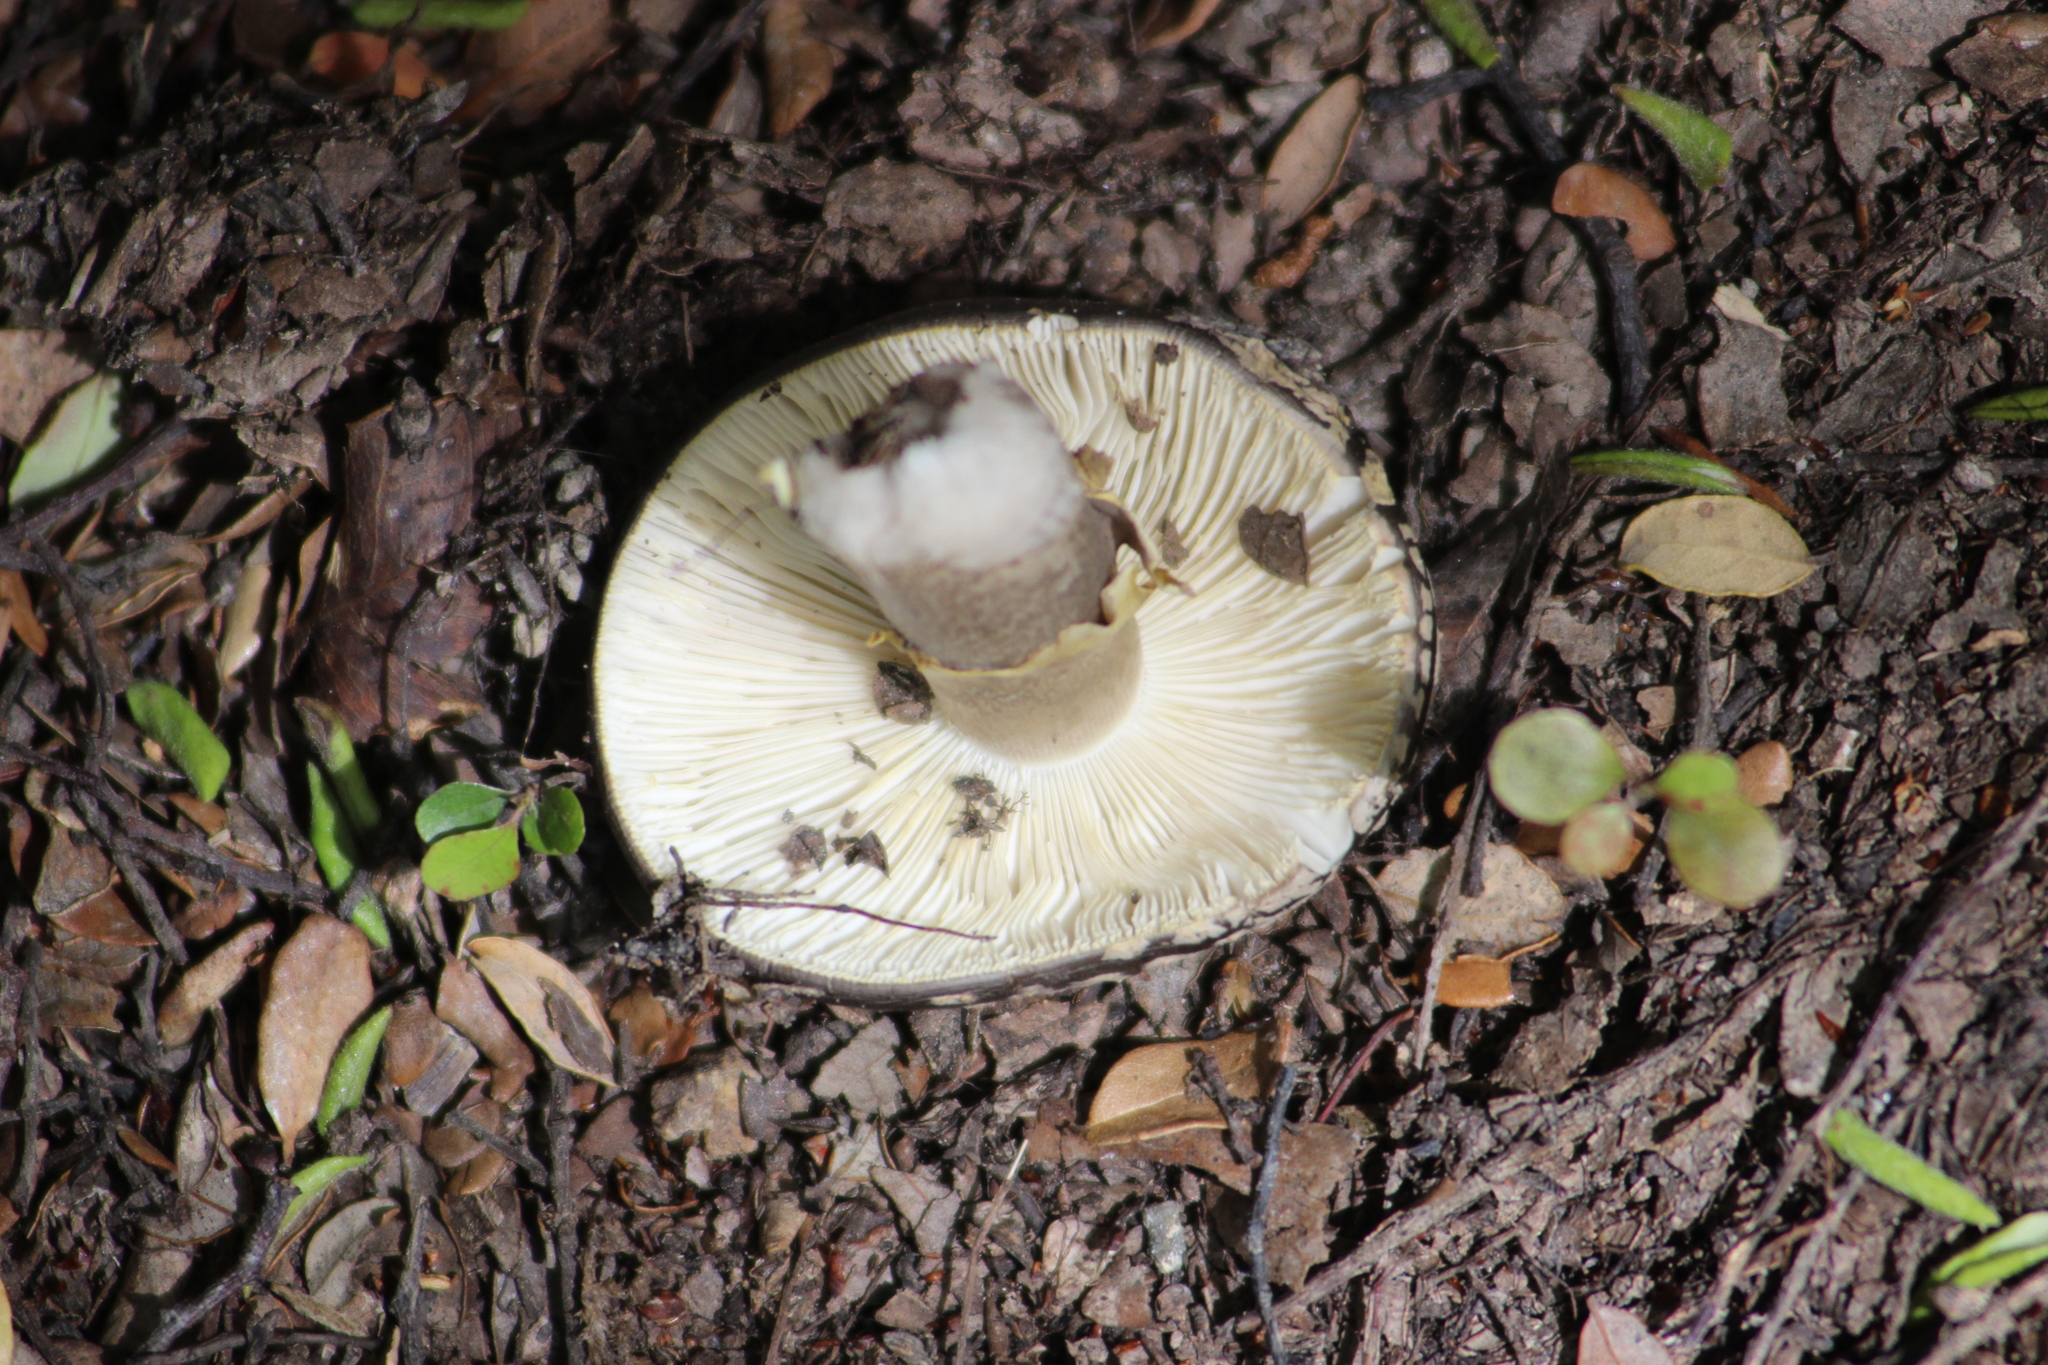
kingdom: Fungi
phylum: Basidiomycota
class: Agaricomycetes
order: Agaricales
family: Amanitaceae
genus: Amanita
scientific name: Amanita nothofagi
